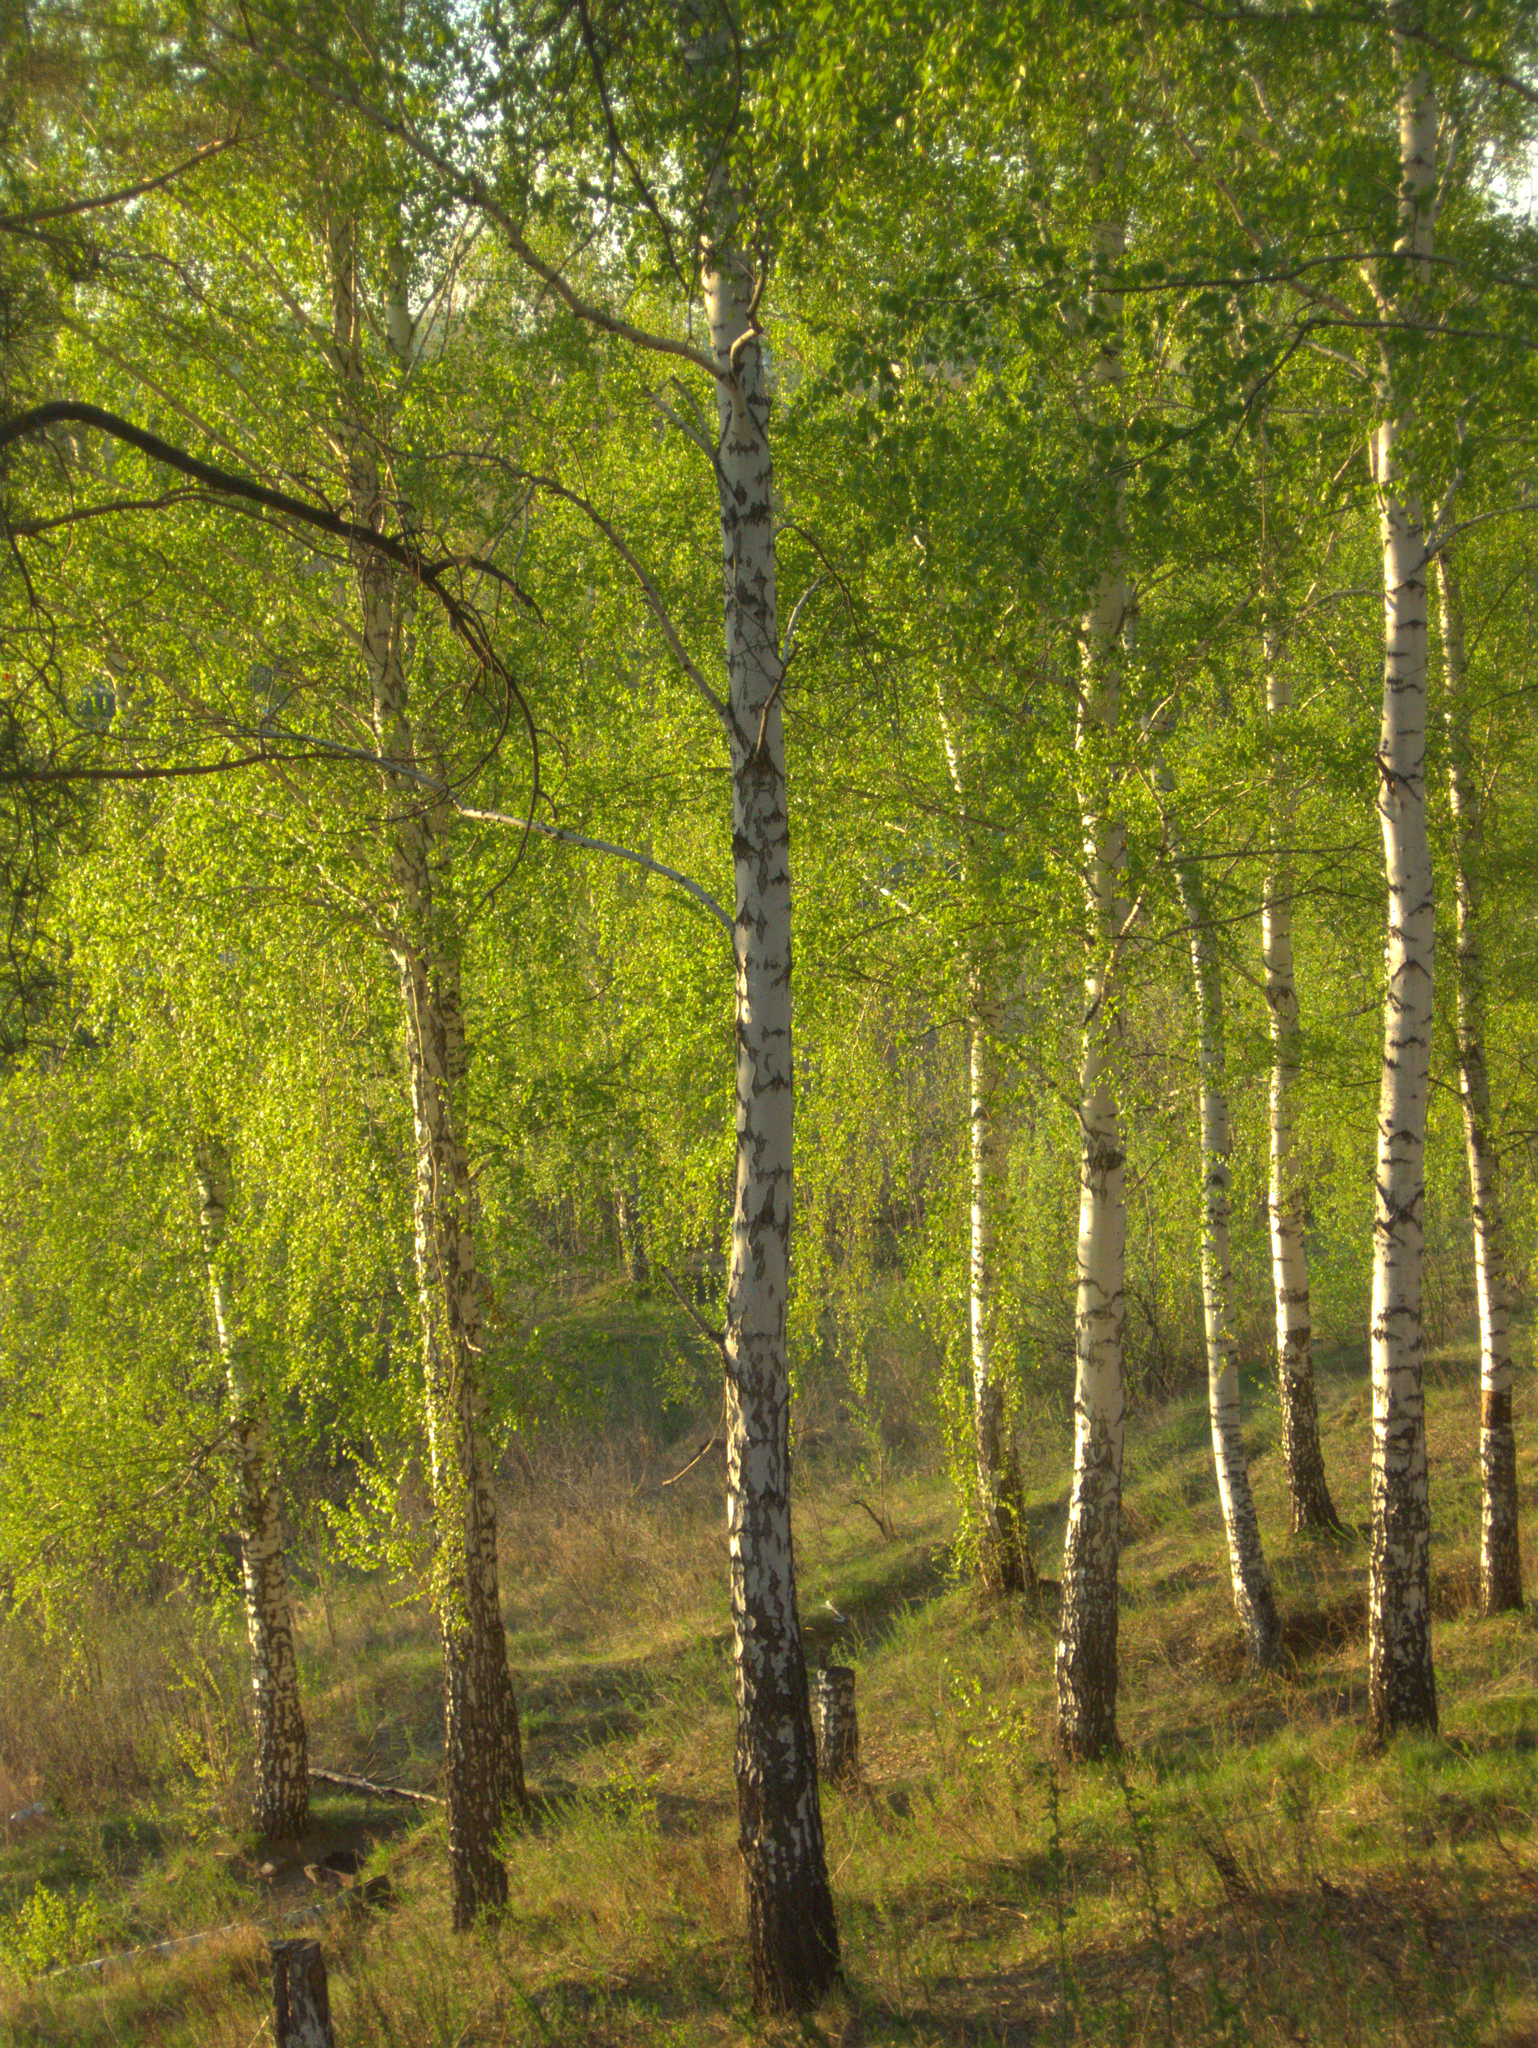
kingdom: Plantae
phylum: Tracheophyta
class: Magnoliopsida
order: Fagales
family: Betulaceae
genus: Betula
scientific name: Betula pendula
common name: Silver birch
